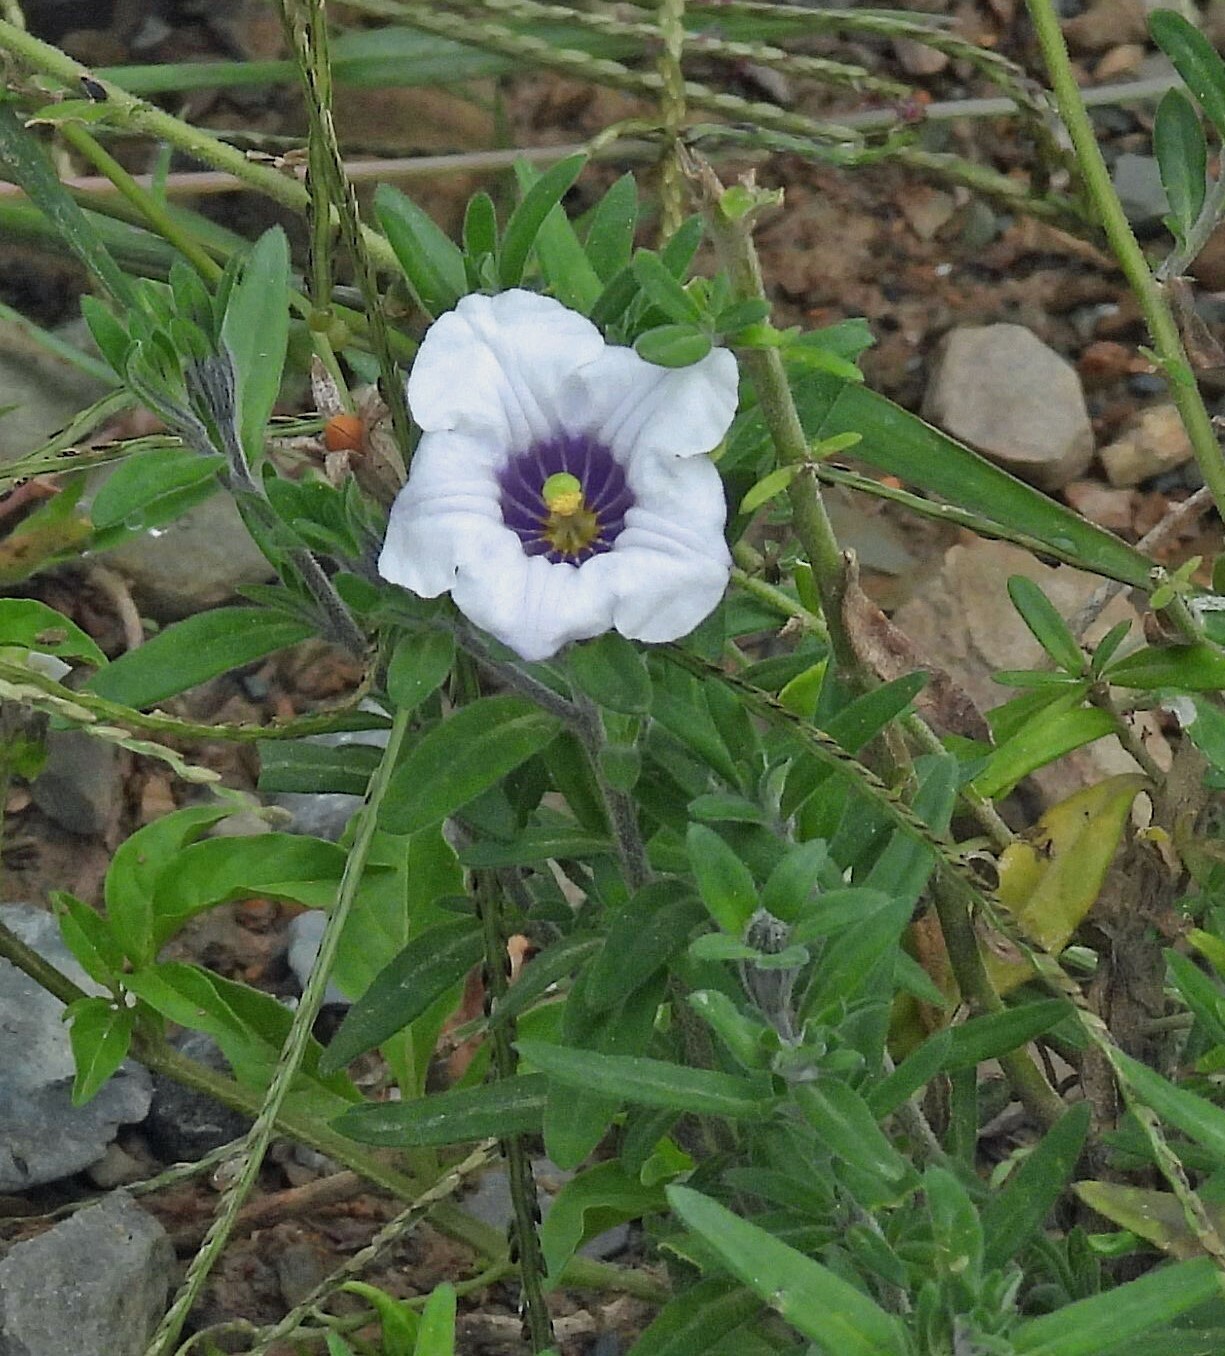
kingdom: Plantae
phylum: Tracheophyta
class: Magnoliopsida
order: Solanales
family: Solanaceae
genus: Nierembergia
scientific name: Nierembergia pulchella
